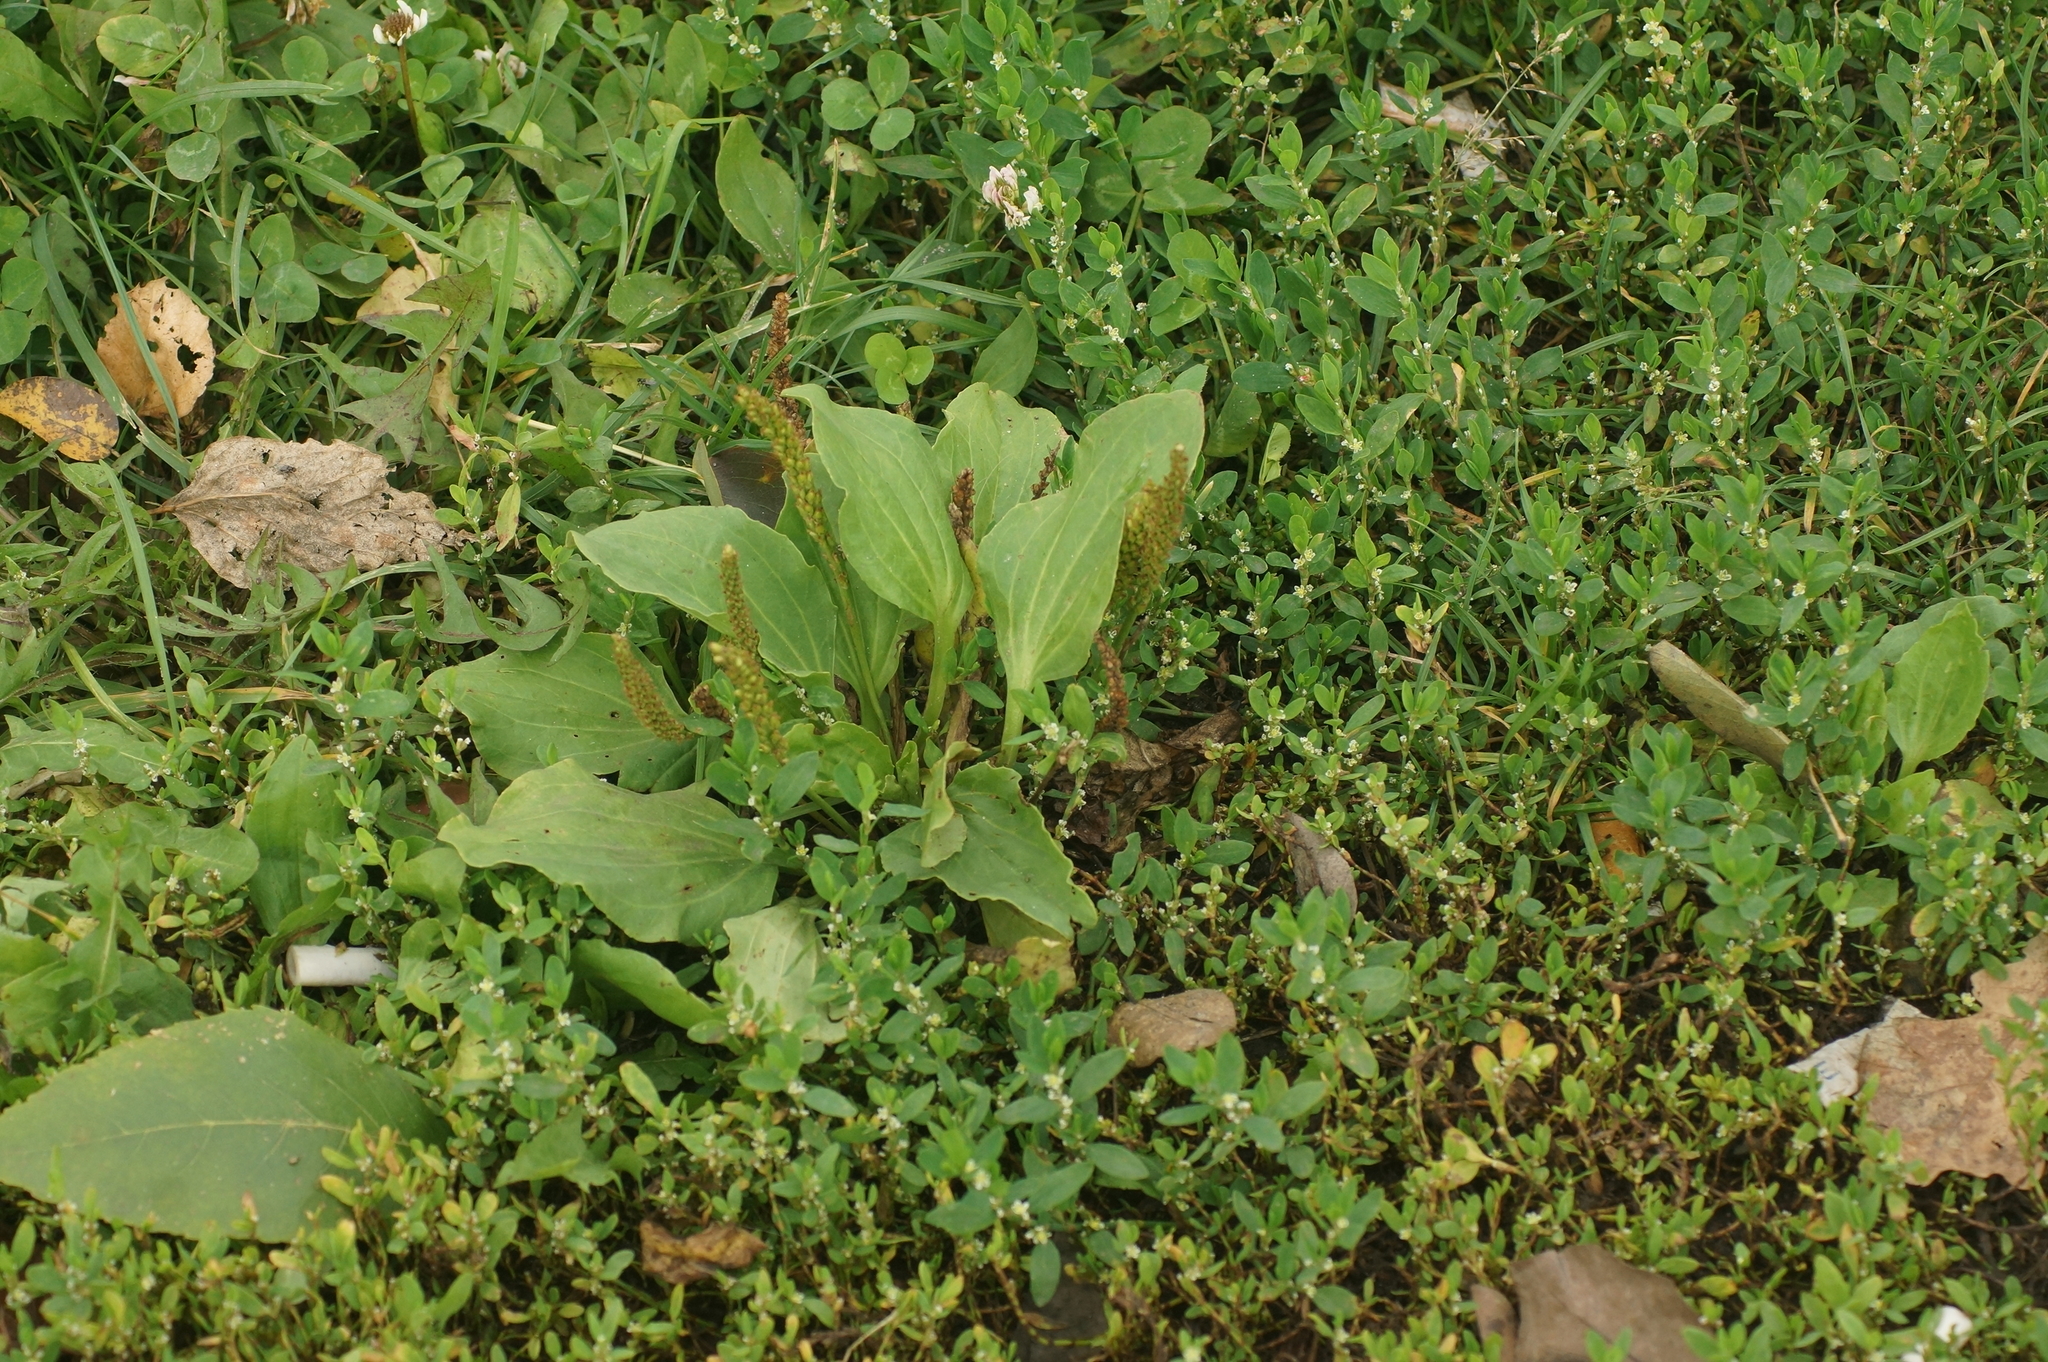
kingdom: Plantae
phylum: Tracheophyta
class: Magnoliopsida
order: Lamiales
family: Plantaginaceae
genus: Plantago
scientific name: Plantago major
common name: Common plantain
